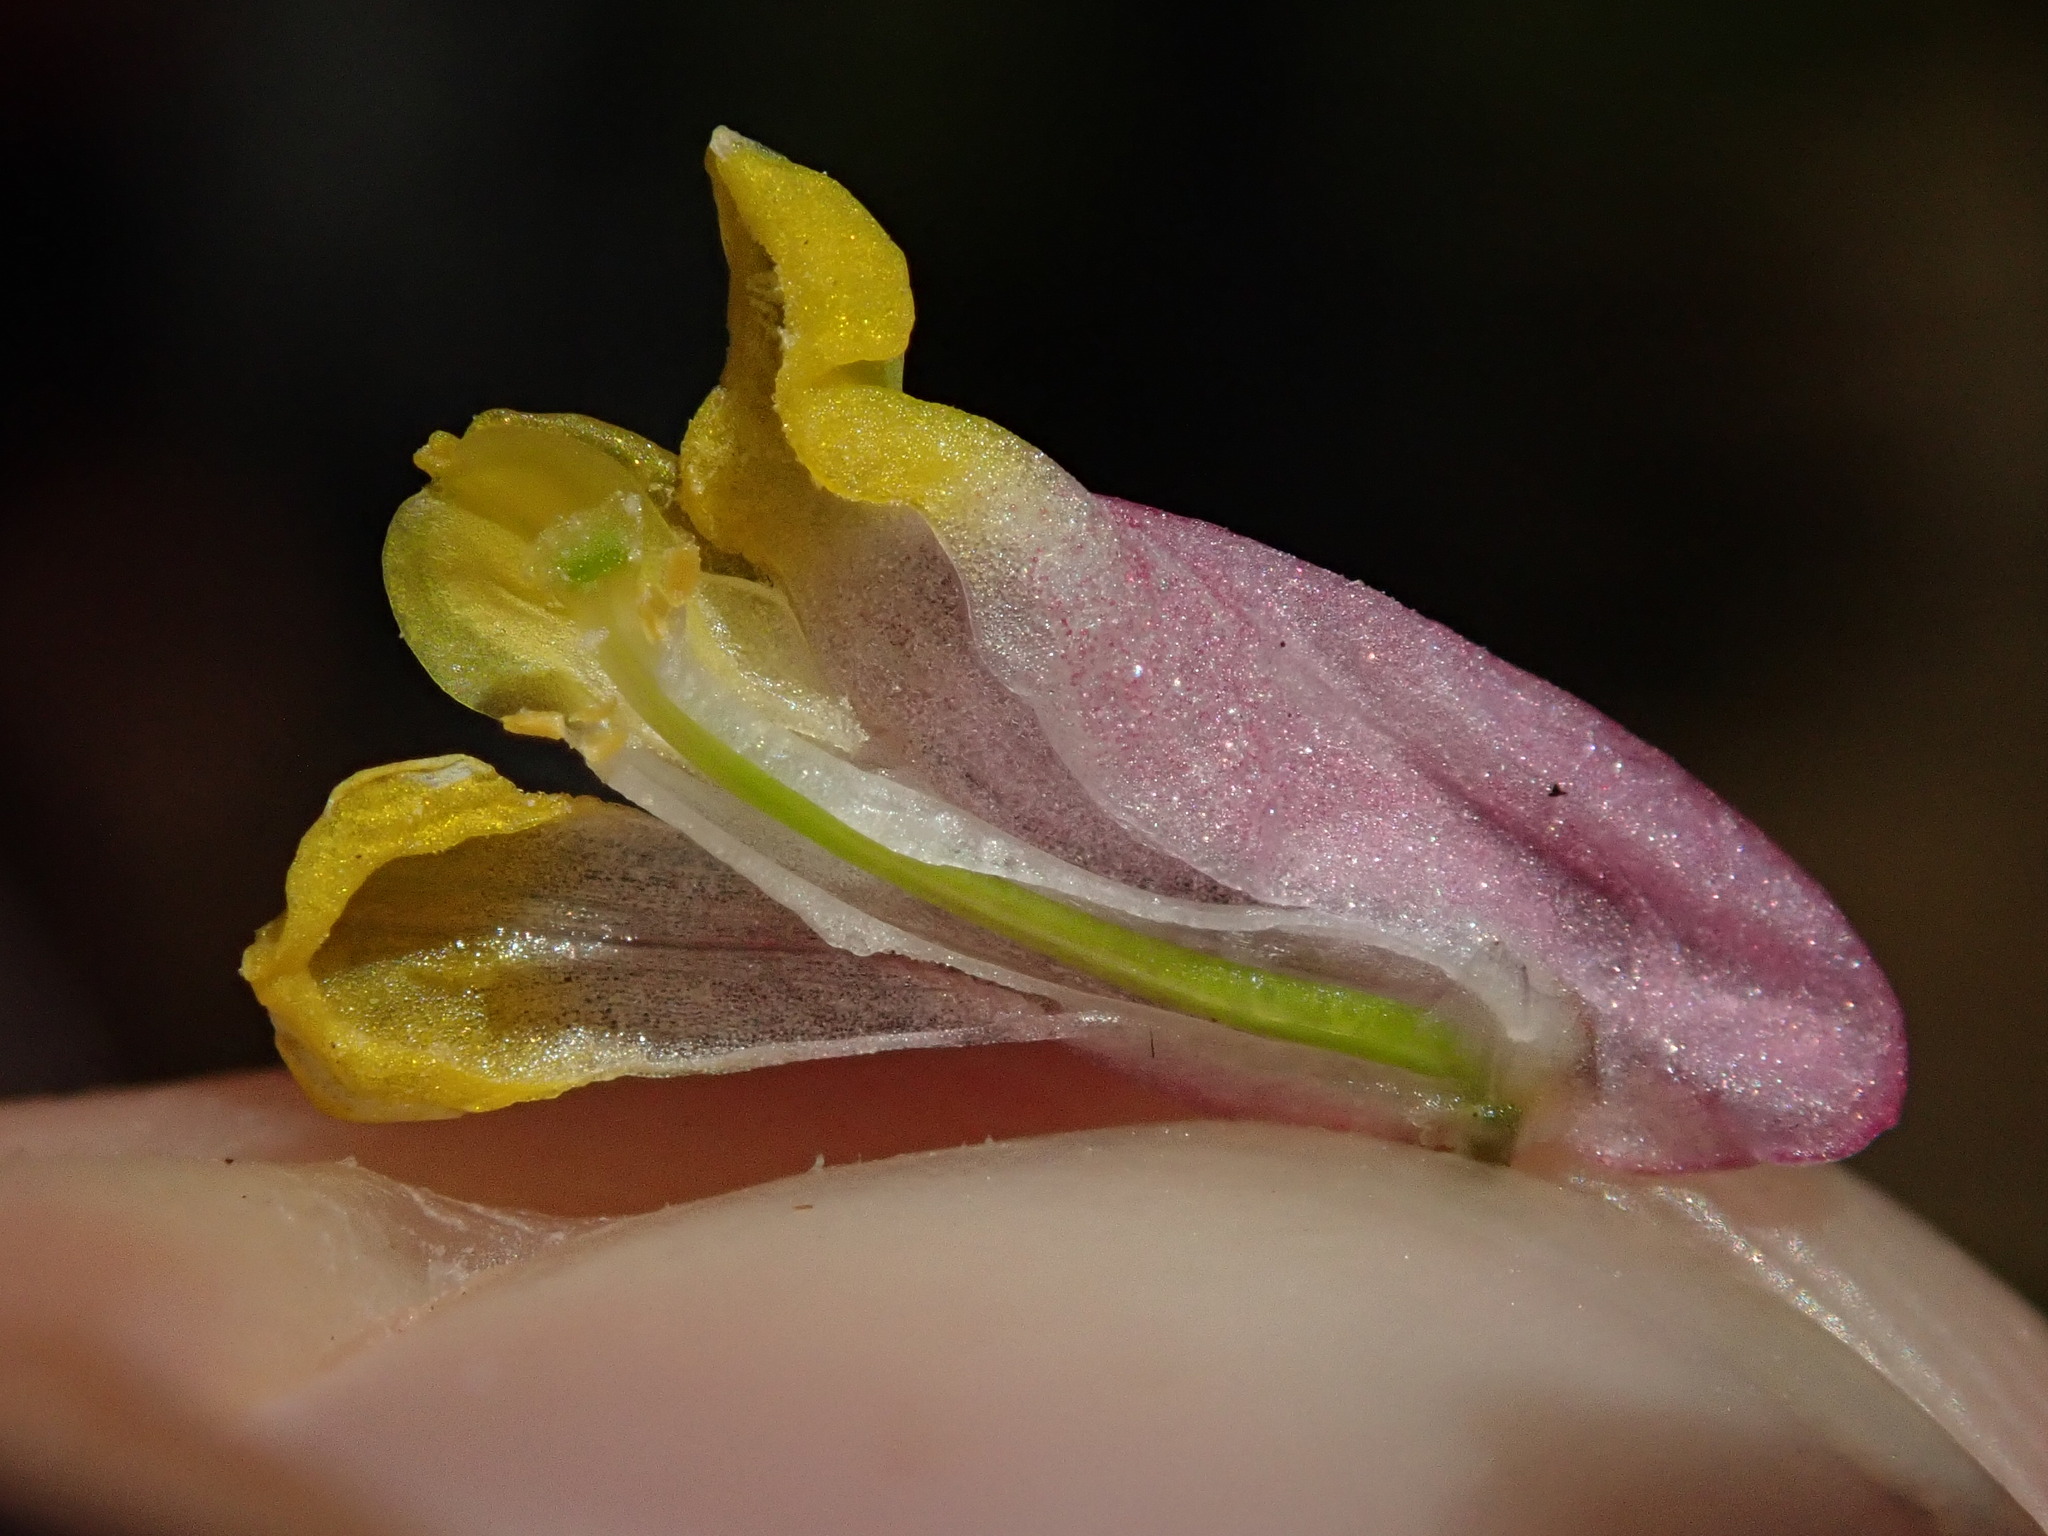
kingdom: Plantae
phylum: Tracheophyta
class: Magnoliopsida
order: Ranunculales
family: Papaveraceae
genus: Capnoides
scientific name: Capnoides sempervirens
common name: Rock harlequin
